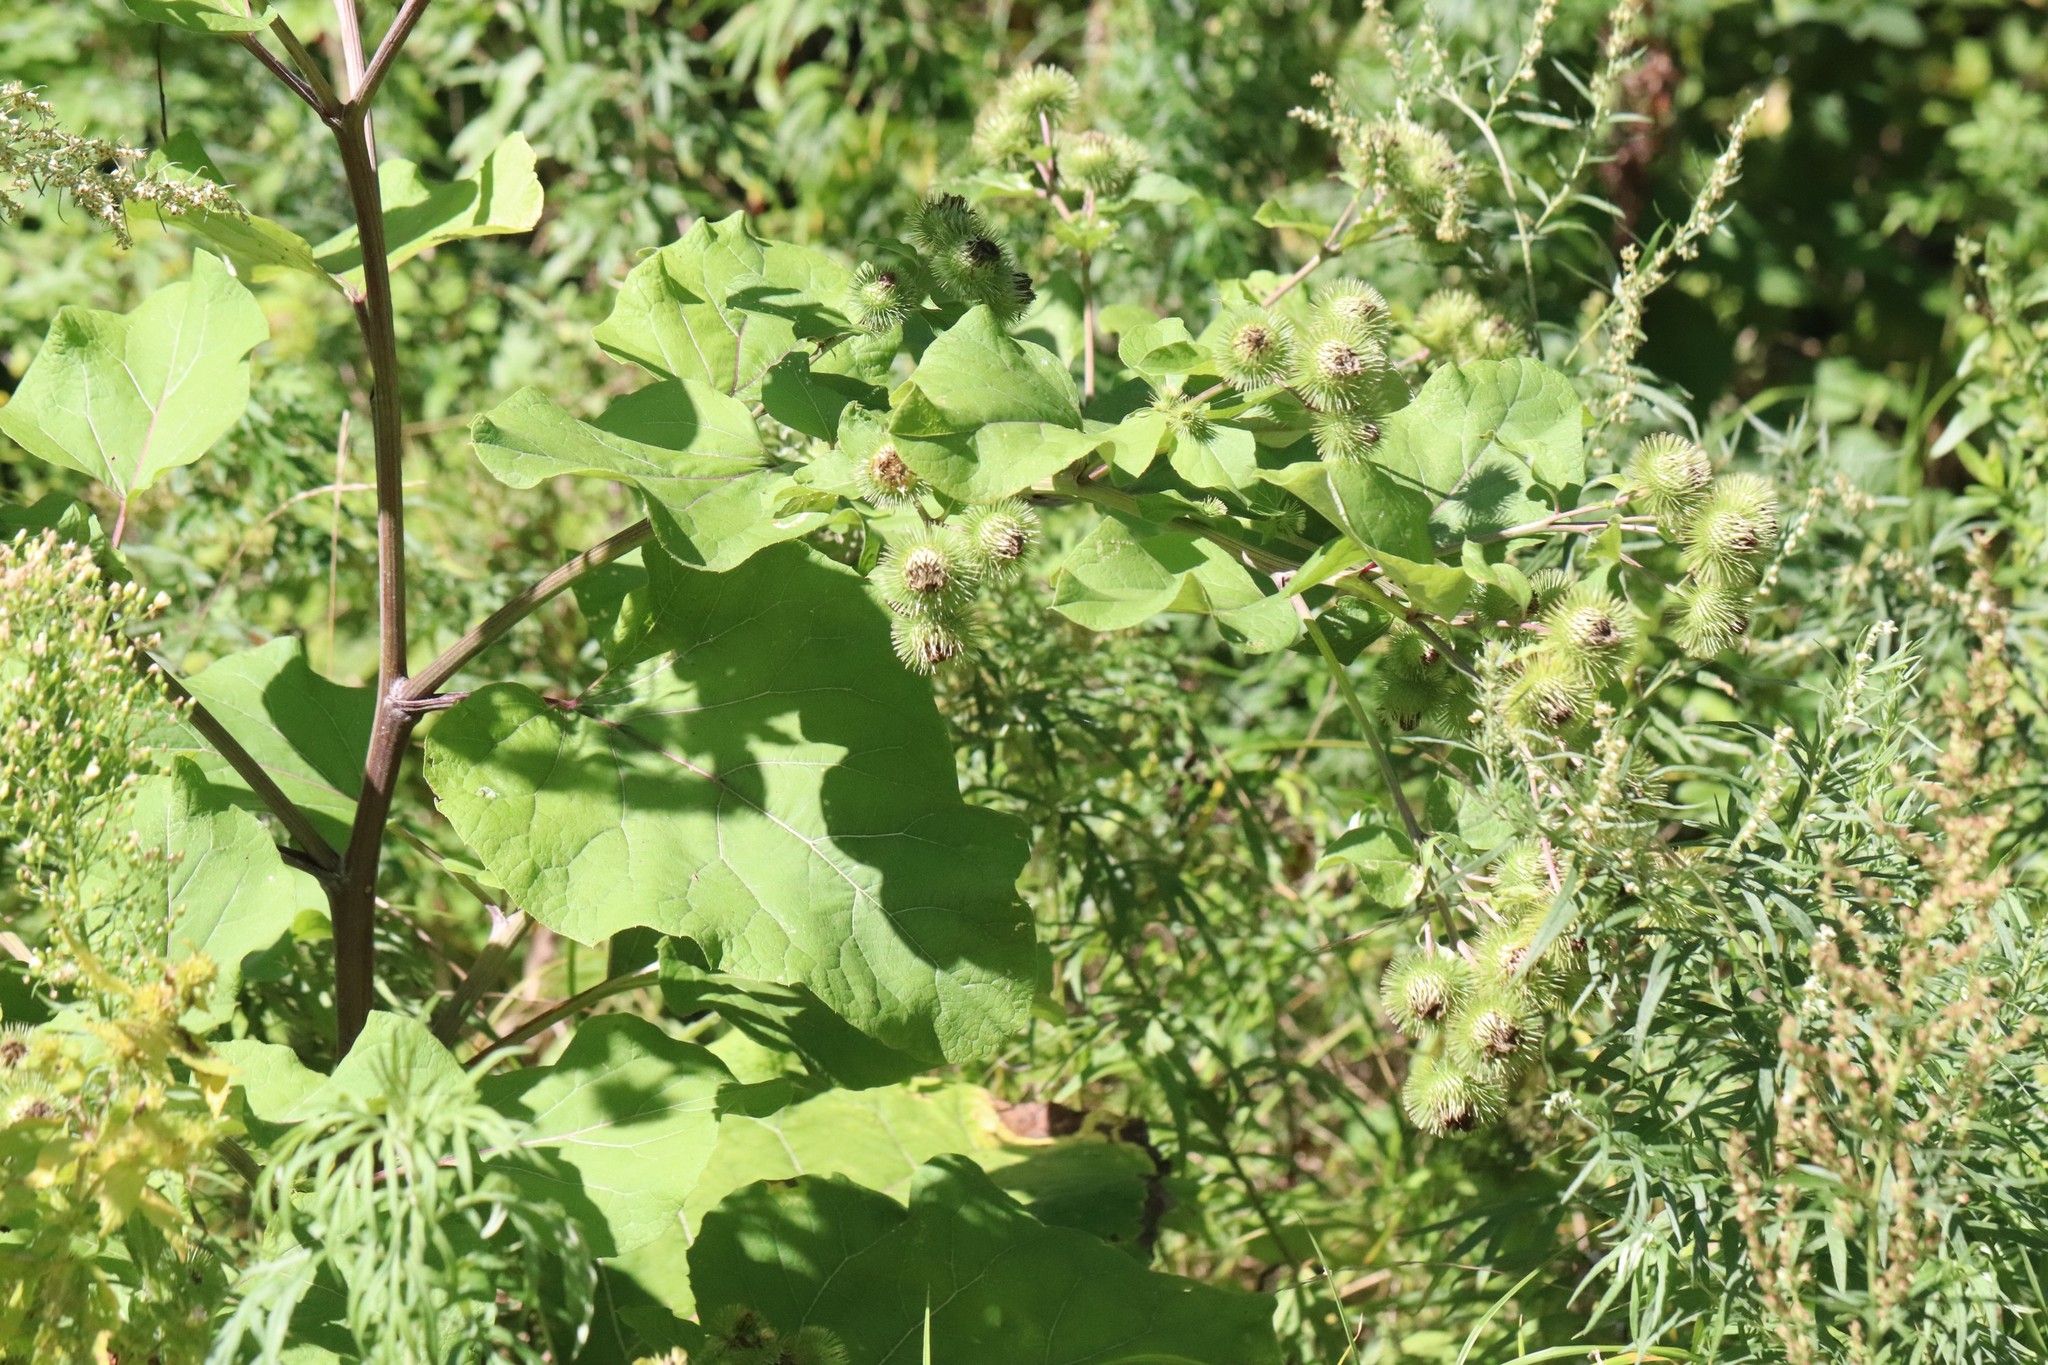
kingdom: Plantae
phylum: Tracheophyta
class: Magnoliopsida
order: Asterales
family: Asteraceae
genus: Arctium
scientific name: Arctium lappa
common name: Greater burdock
